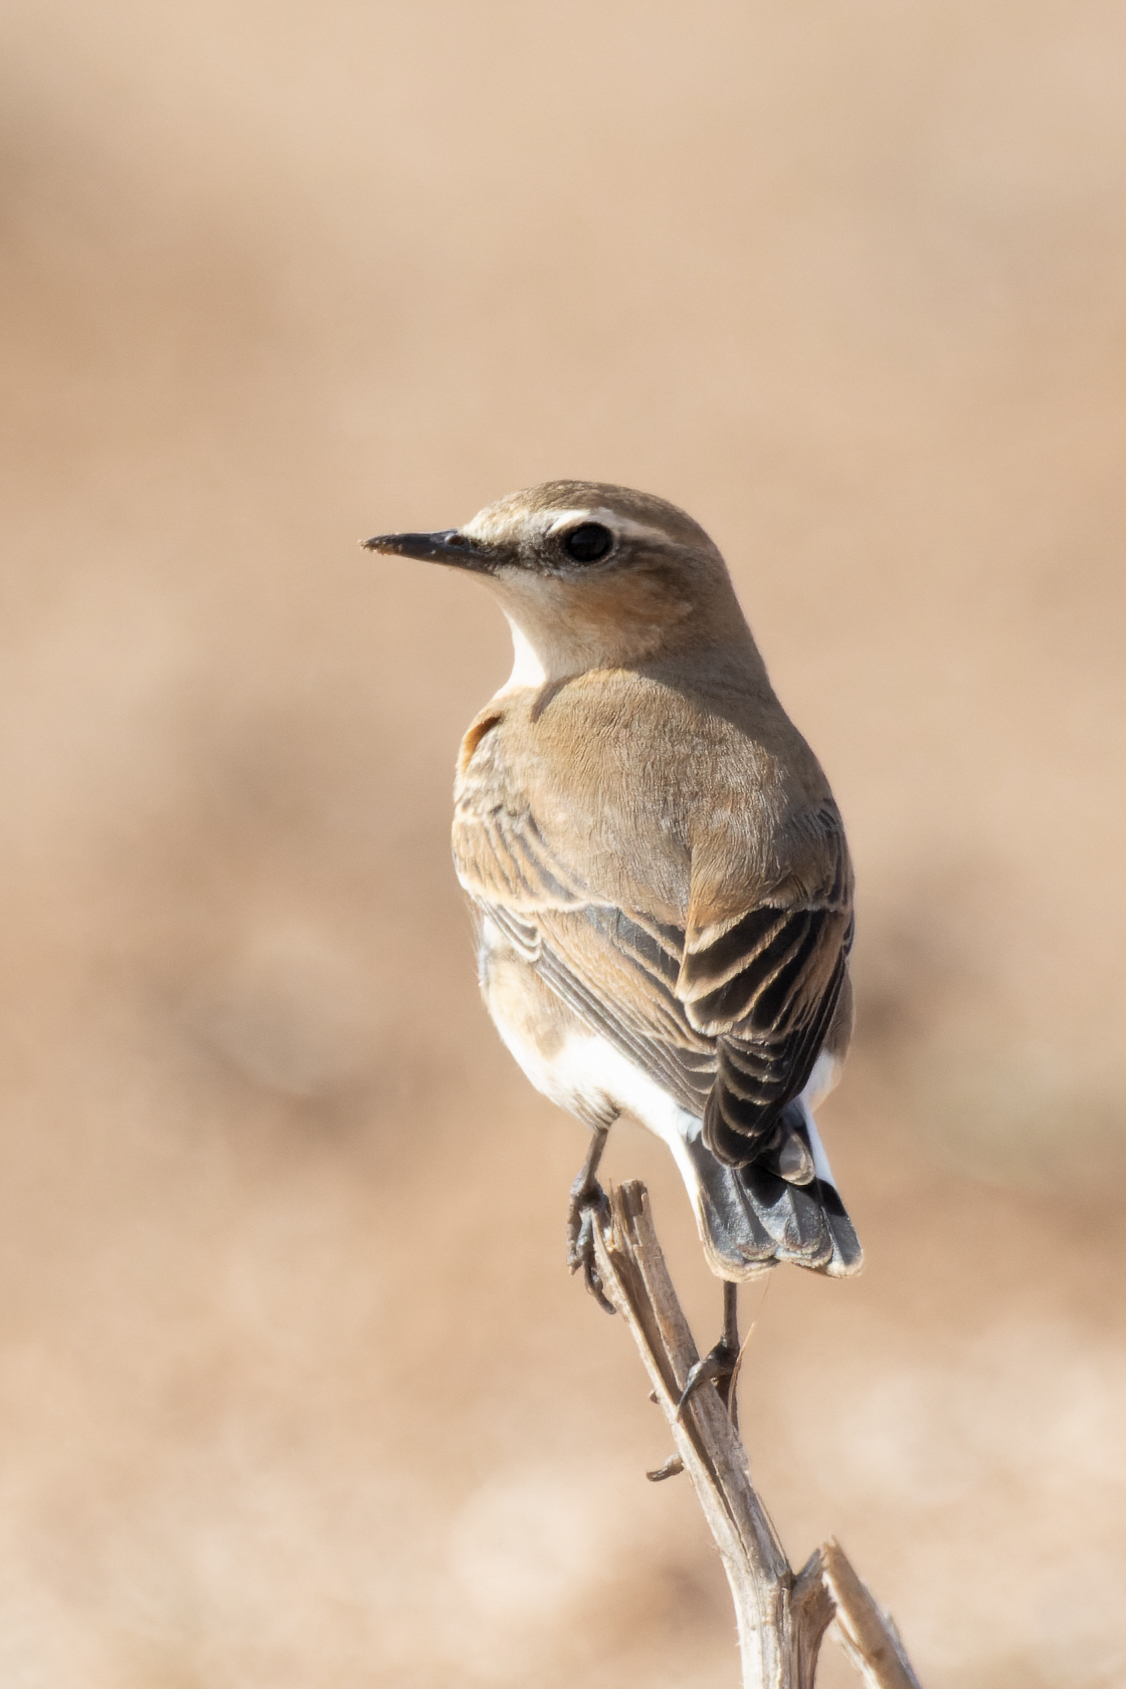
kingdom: Animalia
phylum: Chordata
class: Aves
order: Passeriformes
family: Muscicapidae
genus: Oenanthe
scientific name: Oenanthe oenanthe
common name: Northern wheatear
